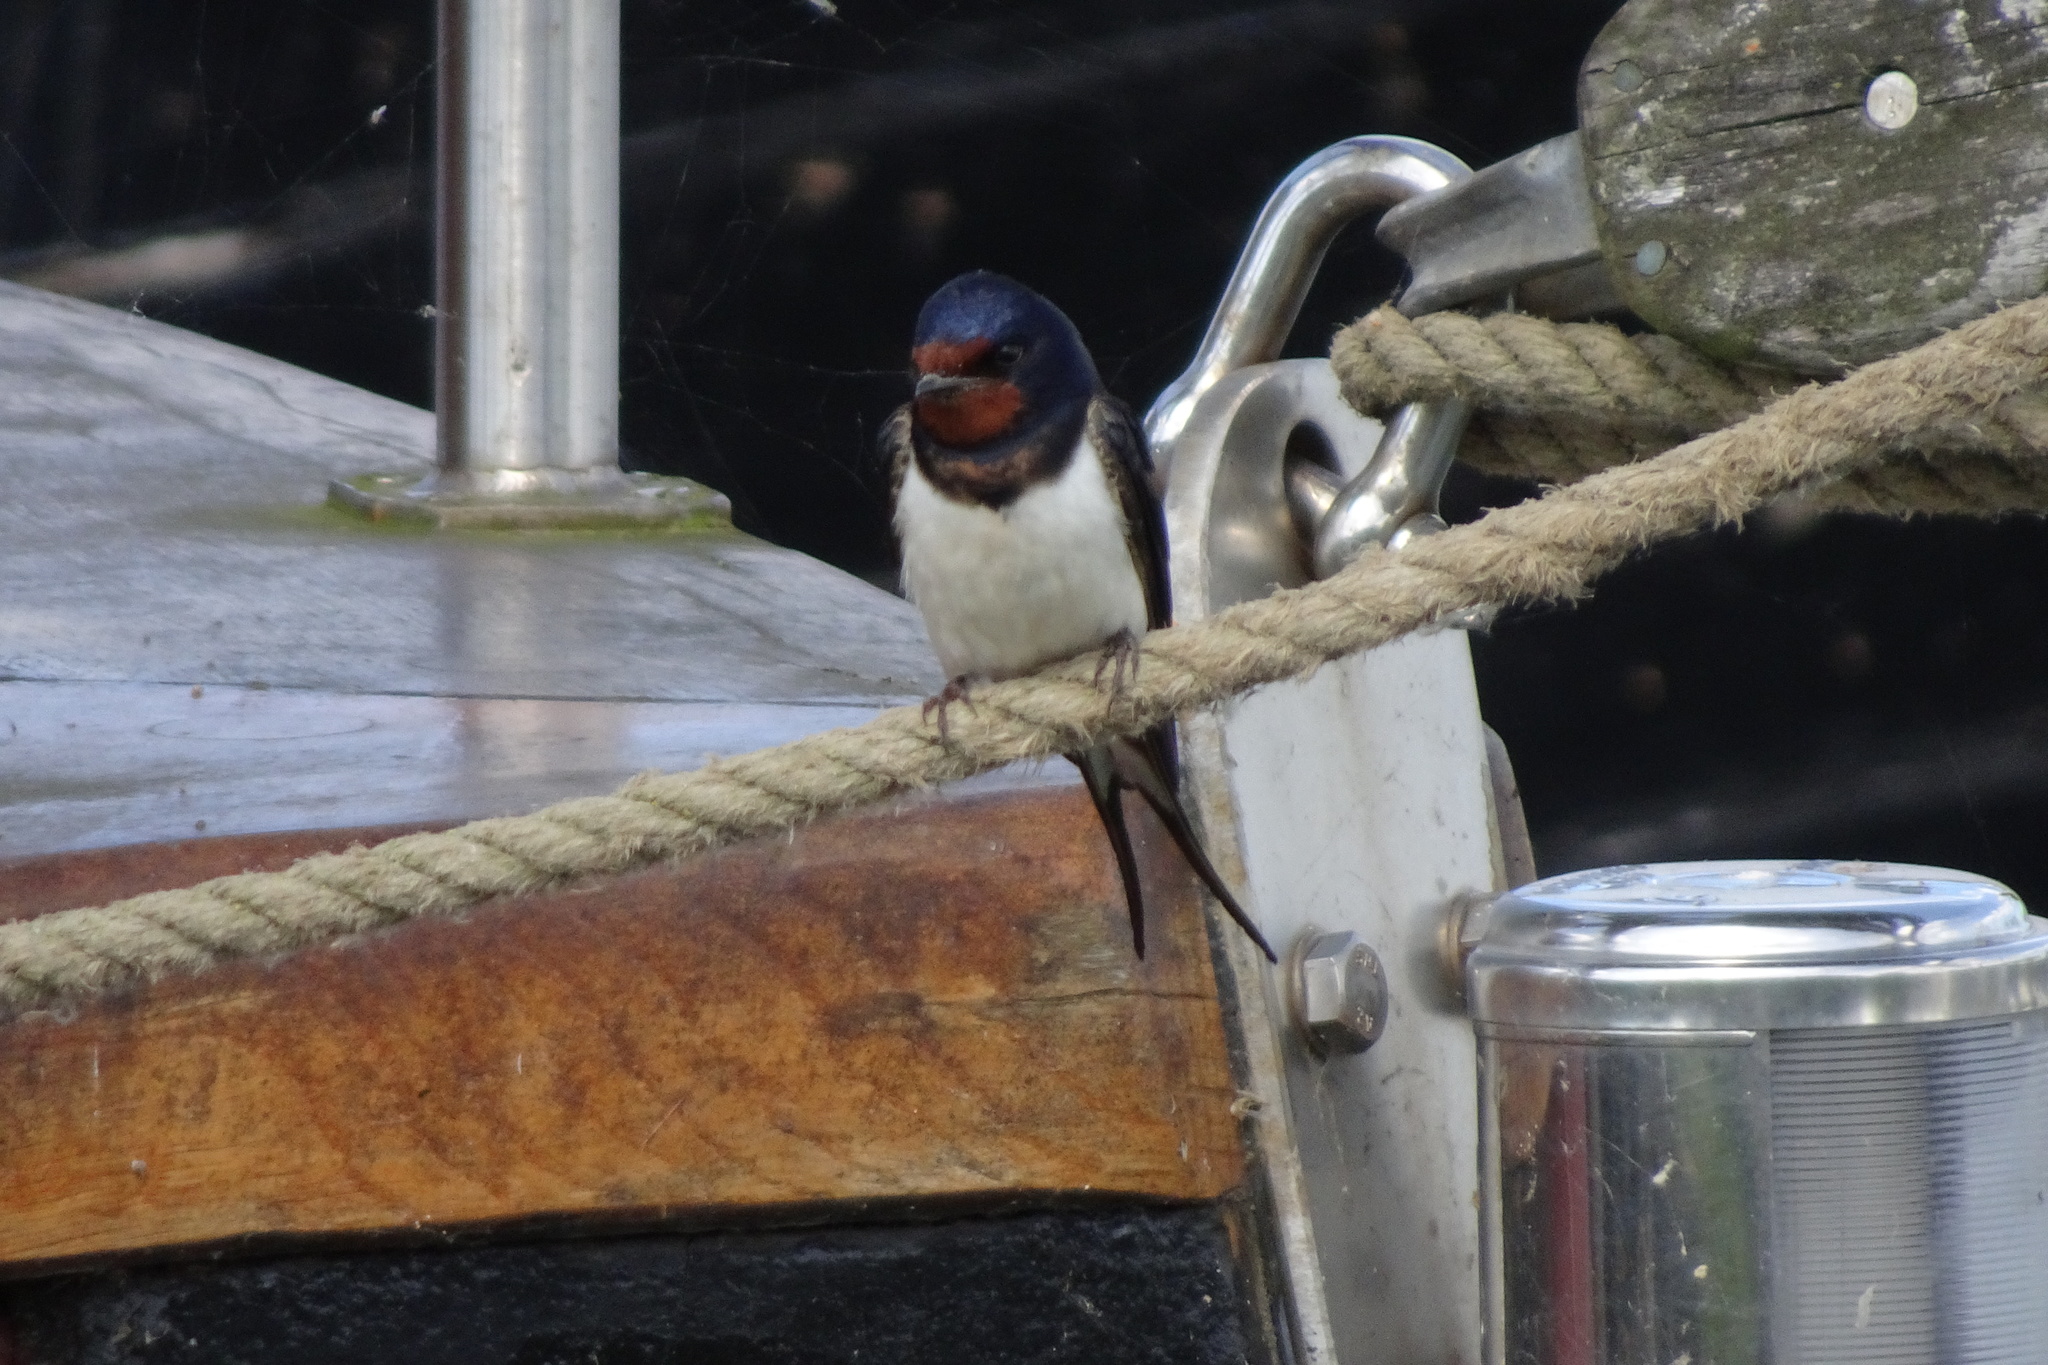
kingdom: Animalia
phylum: Chordata
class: Aves
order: Passeriformes
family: Hirundinidae
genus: Hirundo
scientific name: Hirundo rustica
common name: Barn swallow
